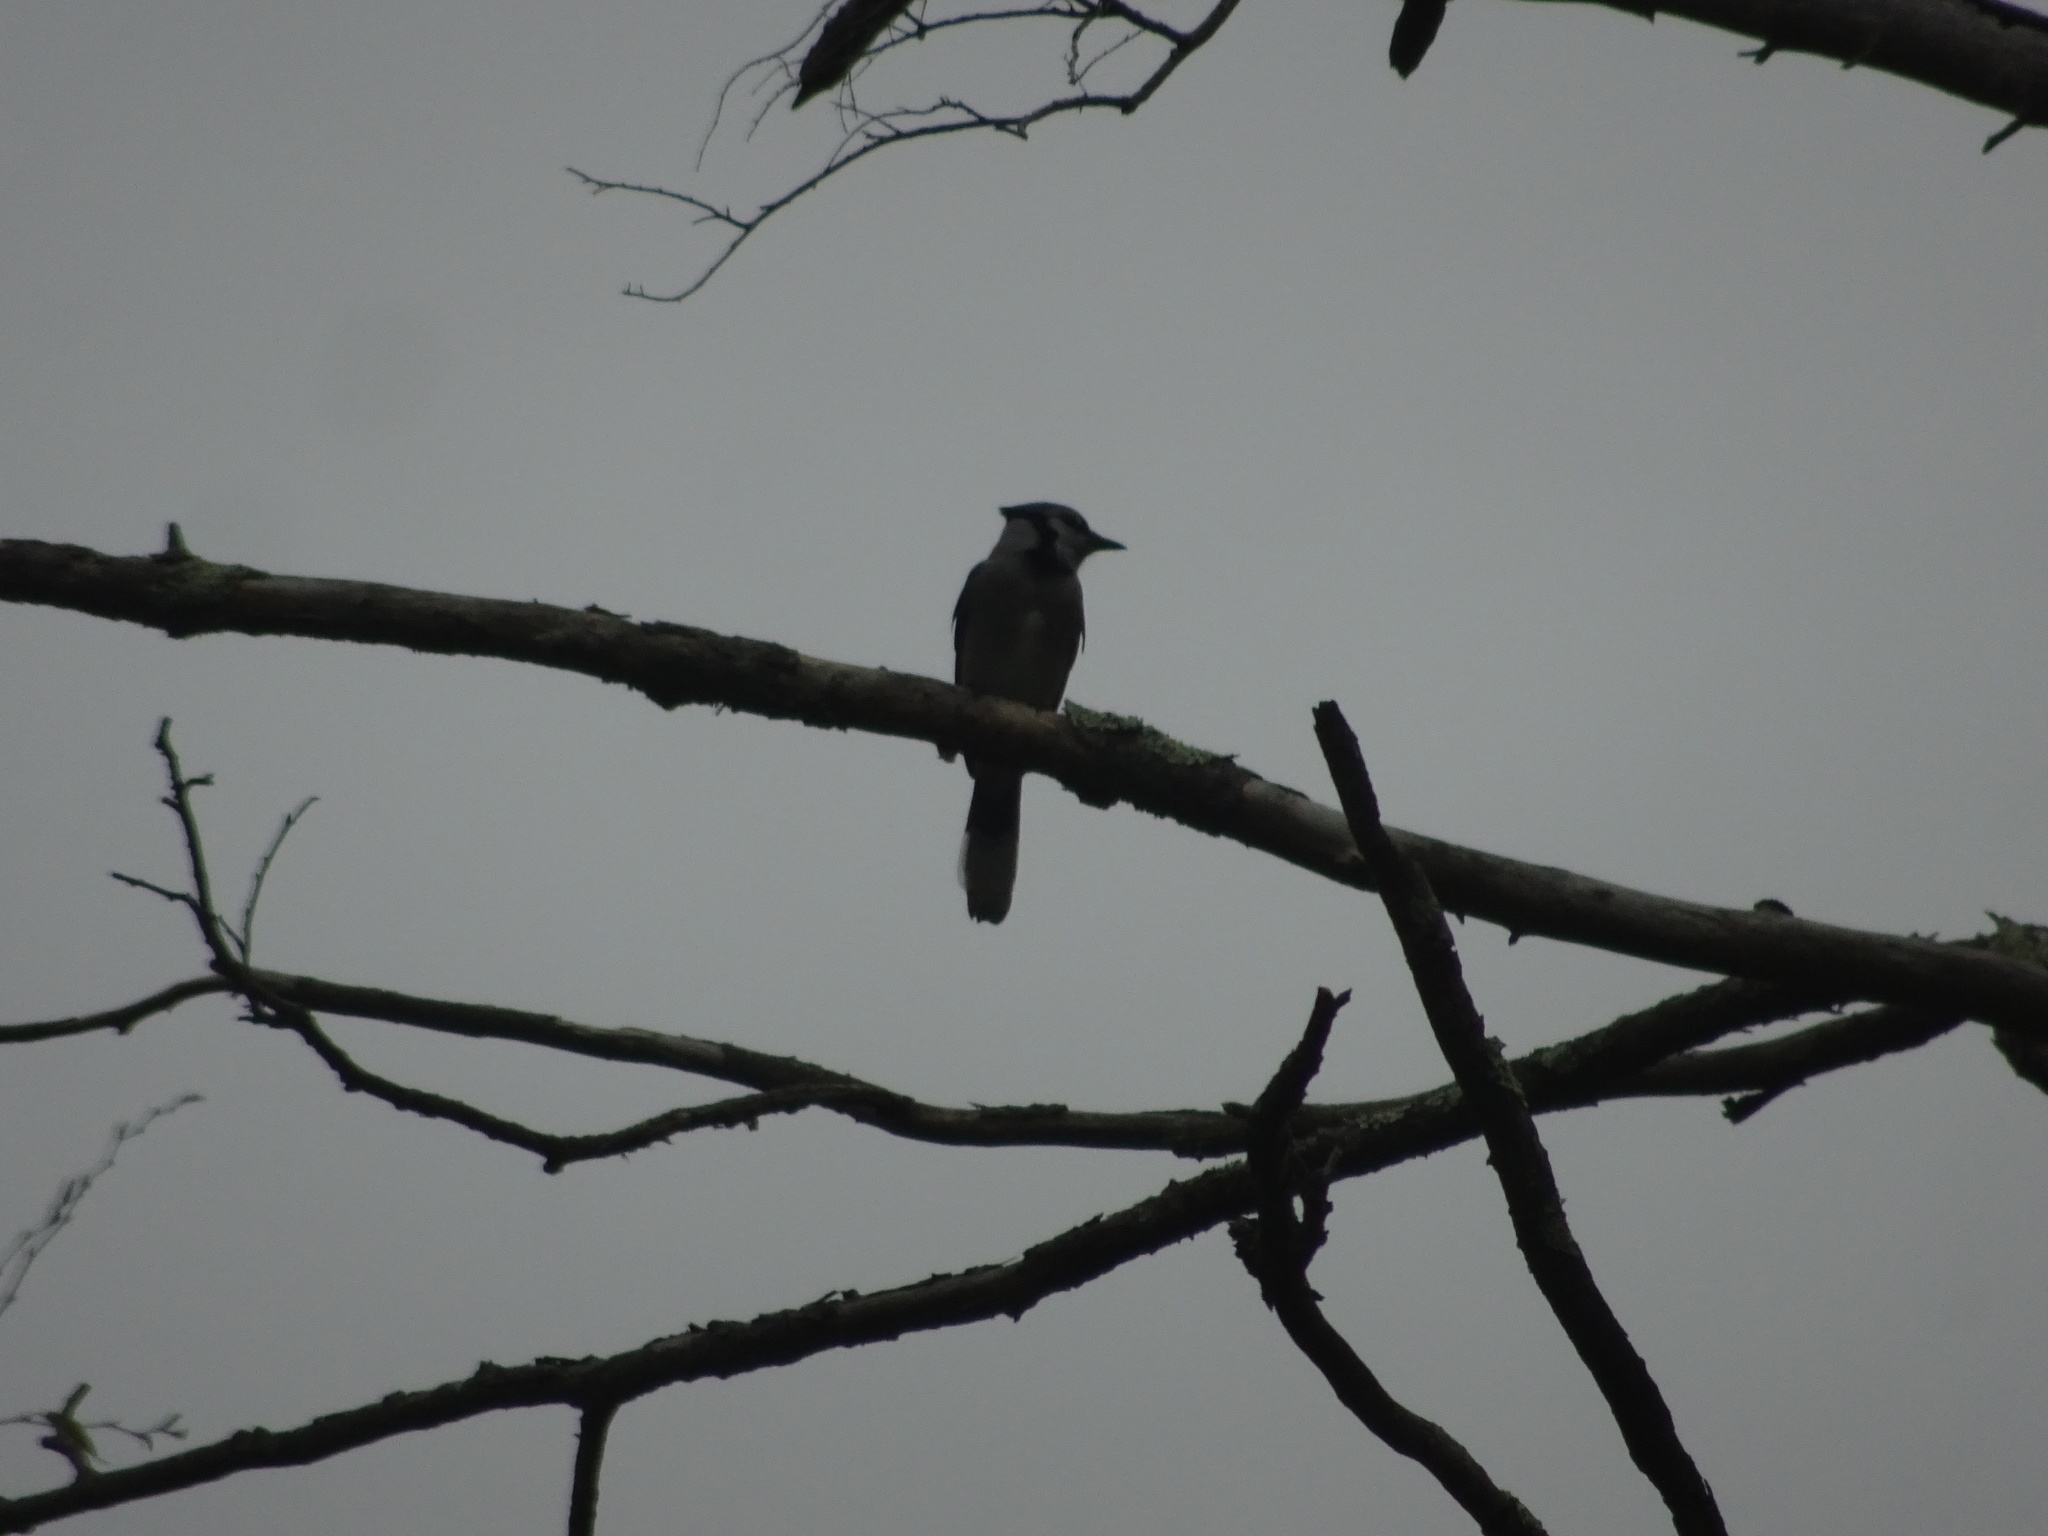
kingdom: Animalia
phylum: Chordata
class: Aves
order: Passeriformes
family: Corvidae
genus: Cyanocitta
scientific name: Cyanocitta cristata
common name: Blue jay
